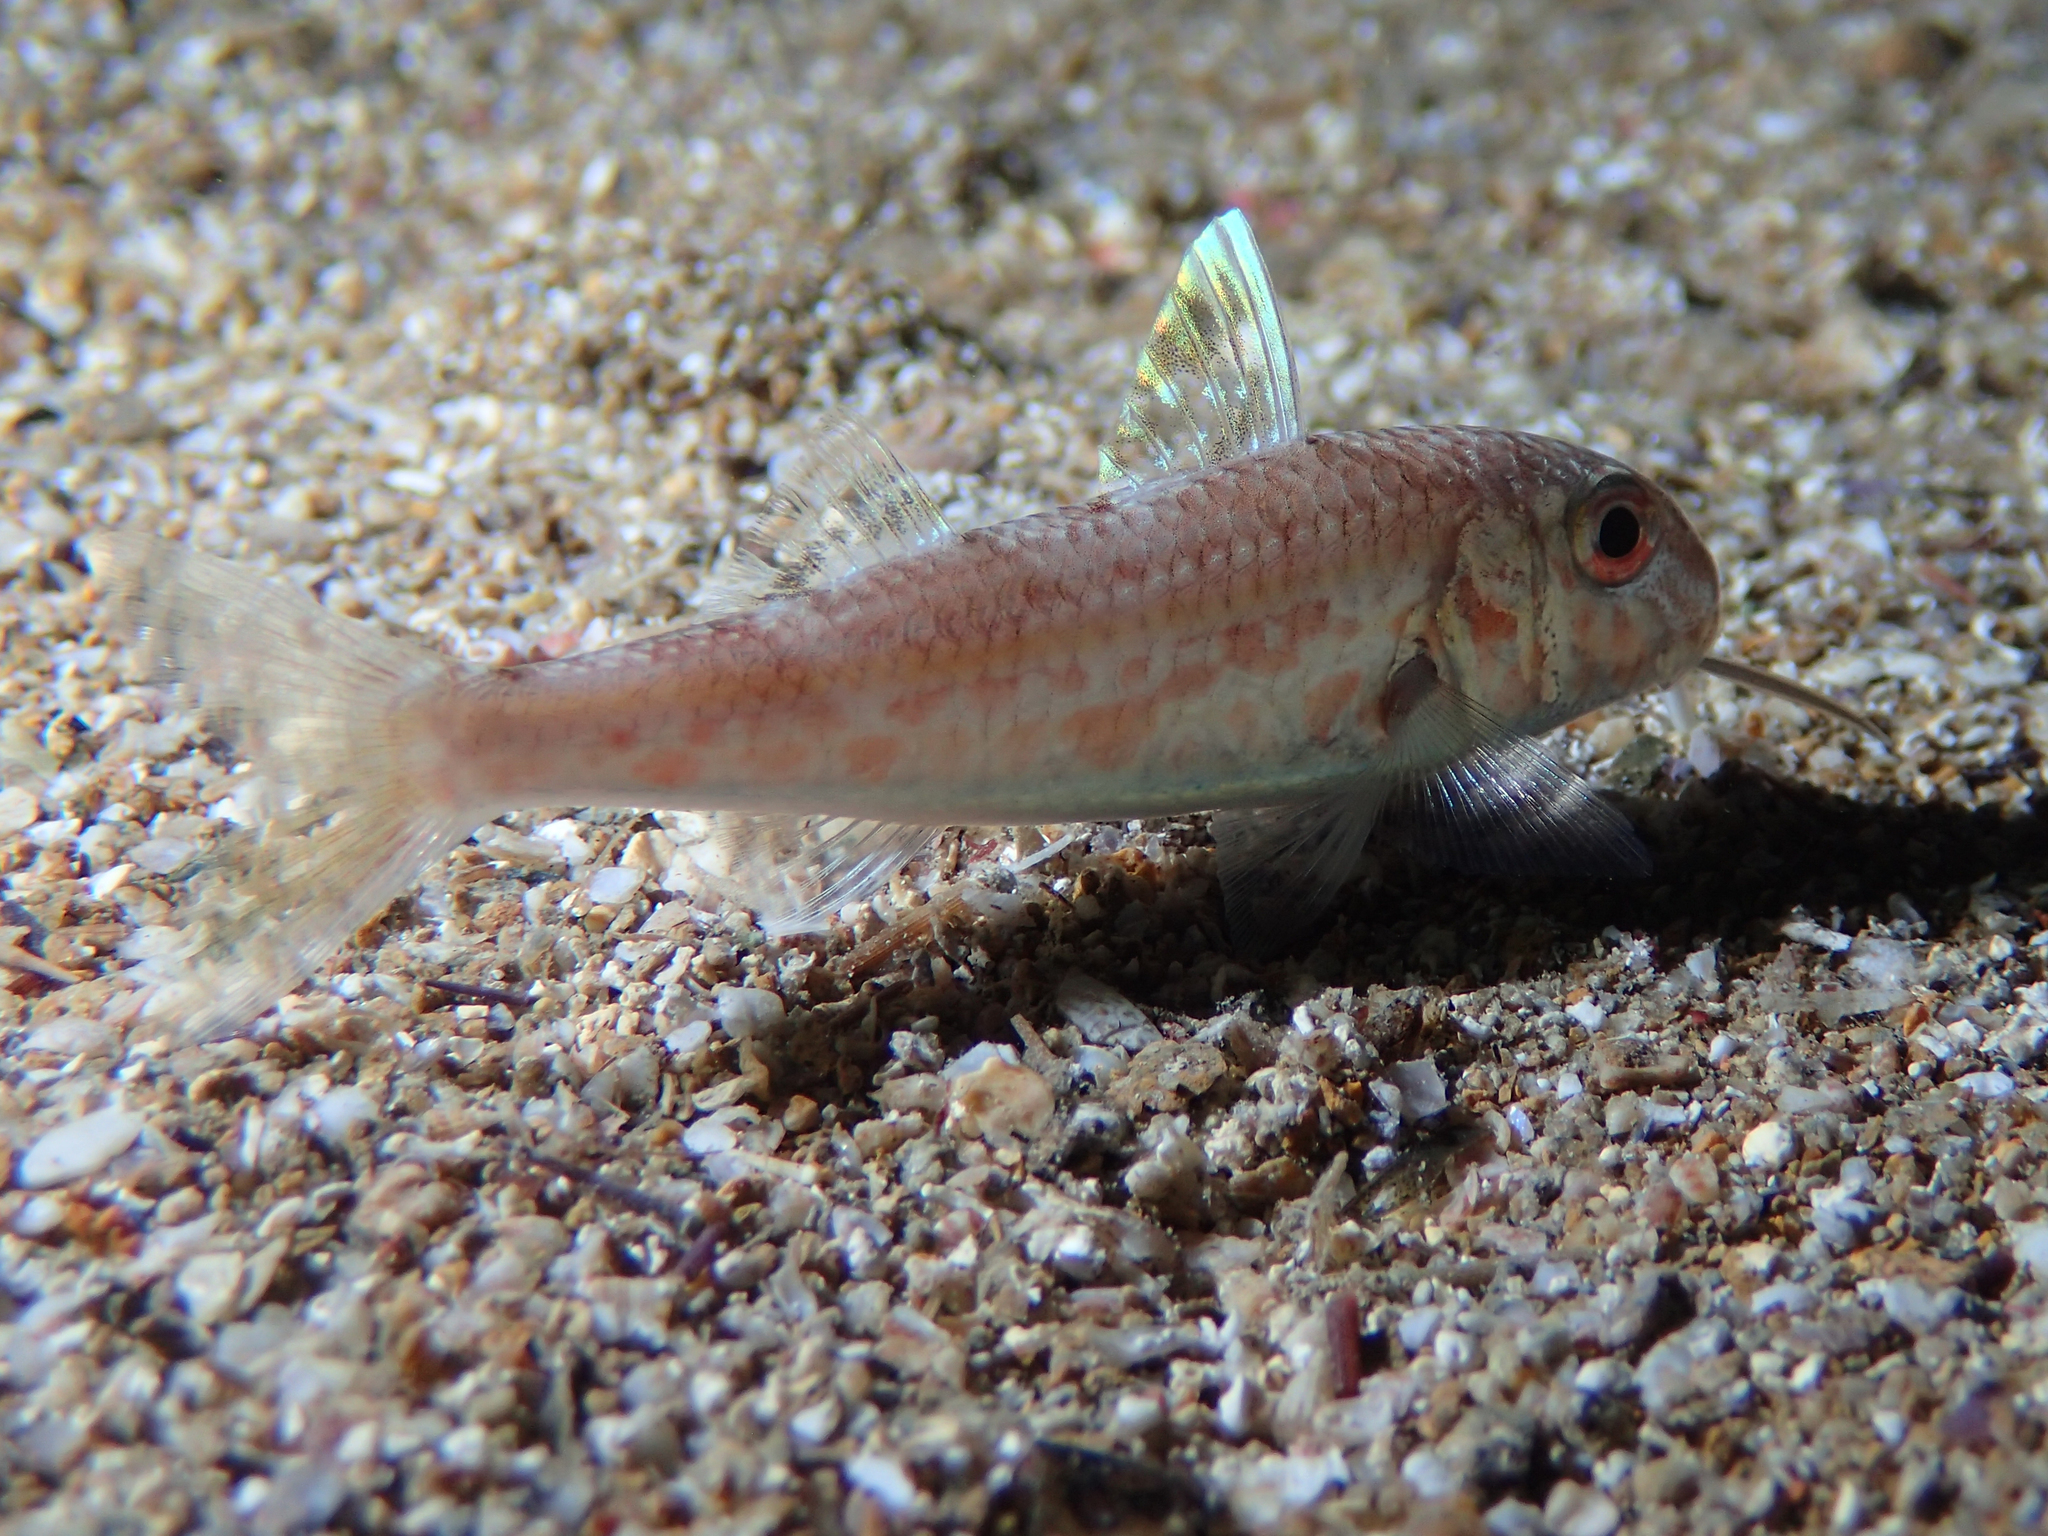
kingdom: Animalia
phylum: Chordata
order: Perciformes
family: Mullidae
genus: Mullus
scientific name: Mullus barbatus
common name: Blunt-snouted mullet
